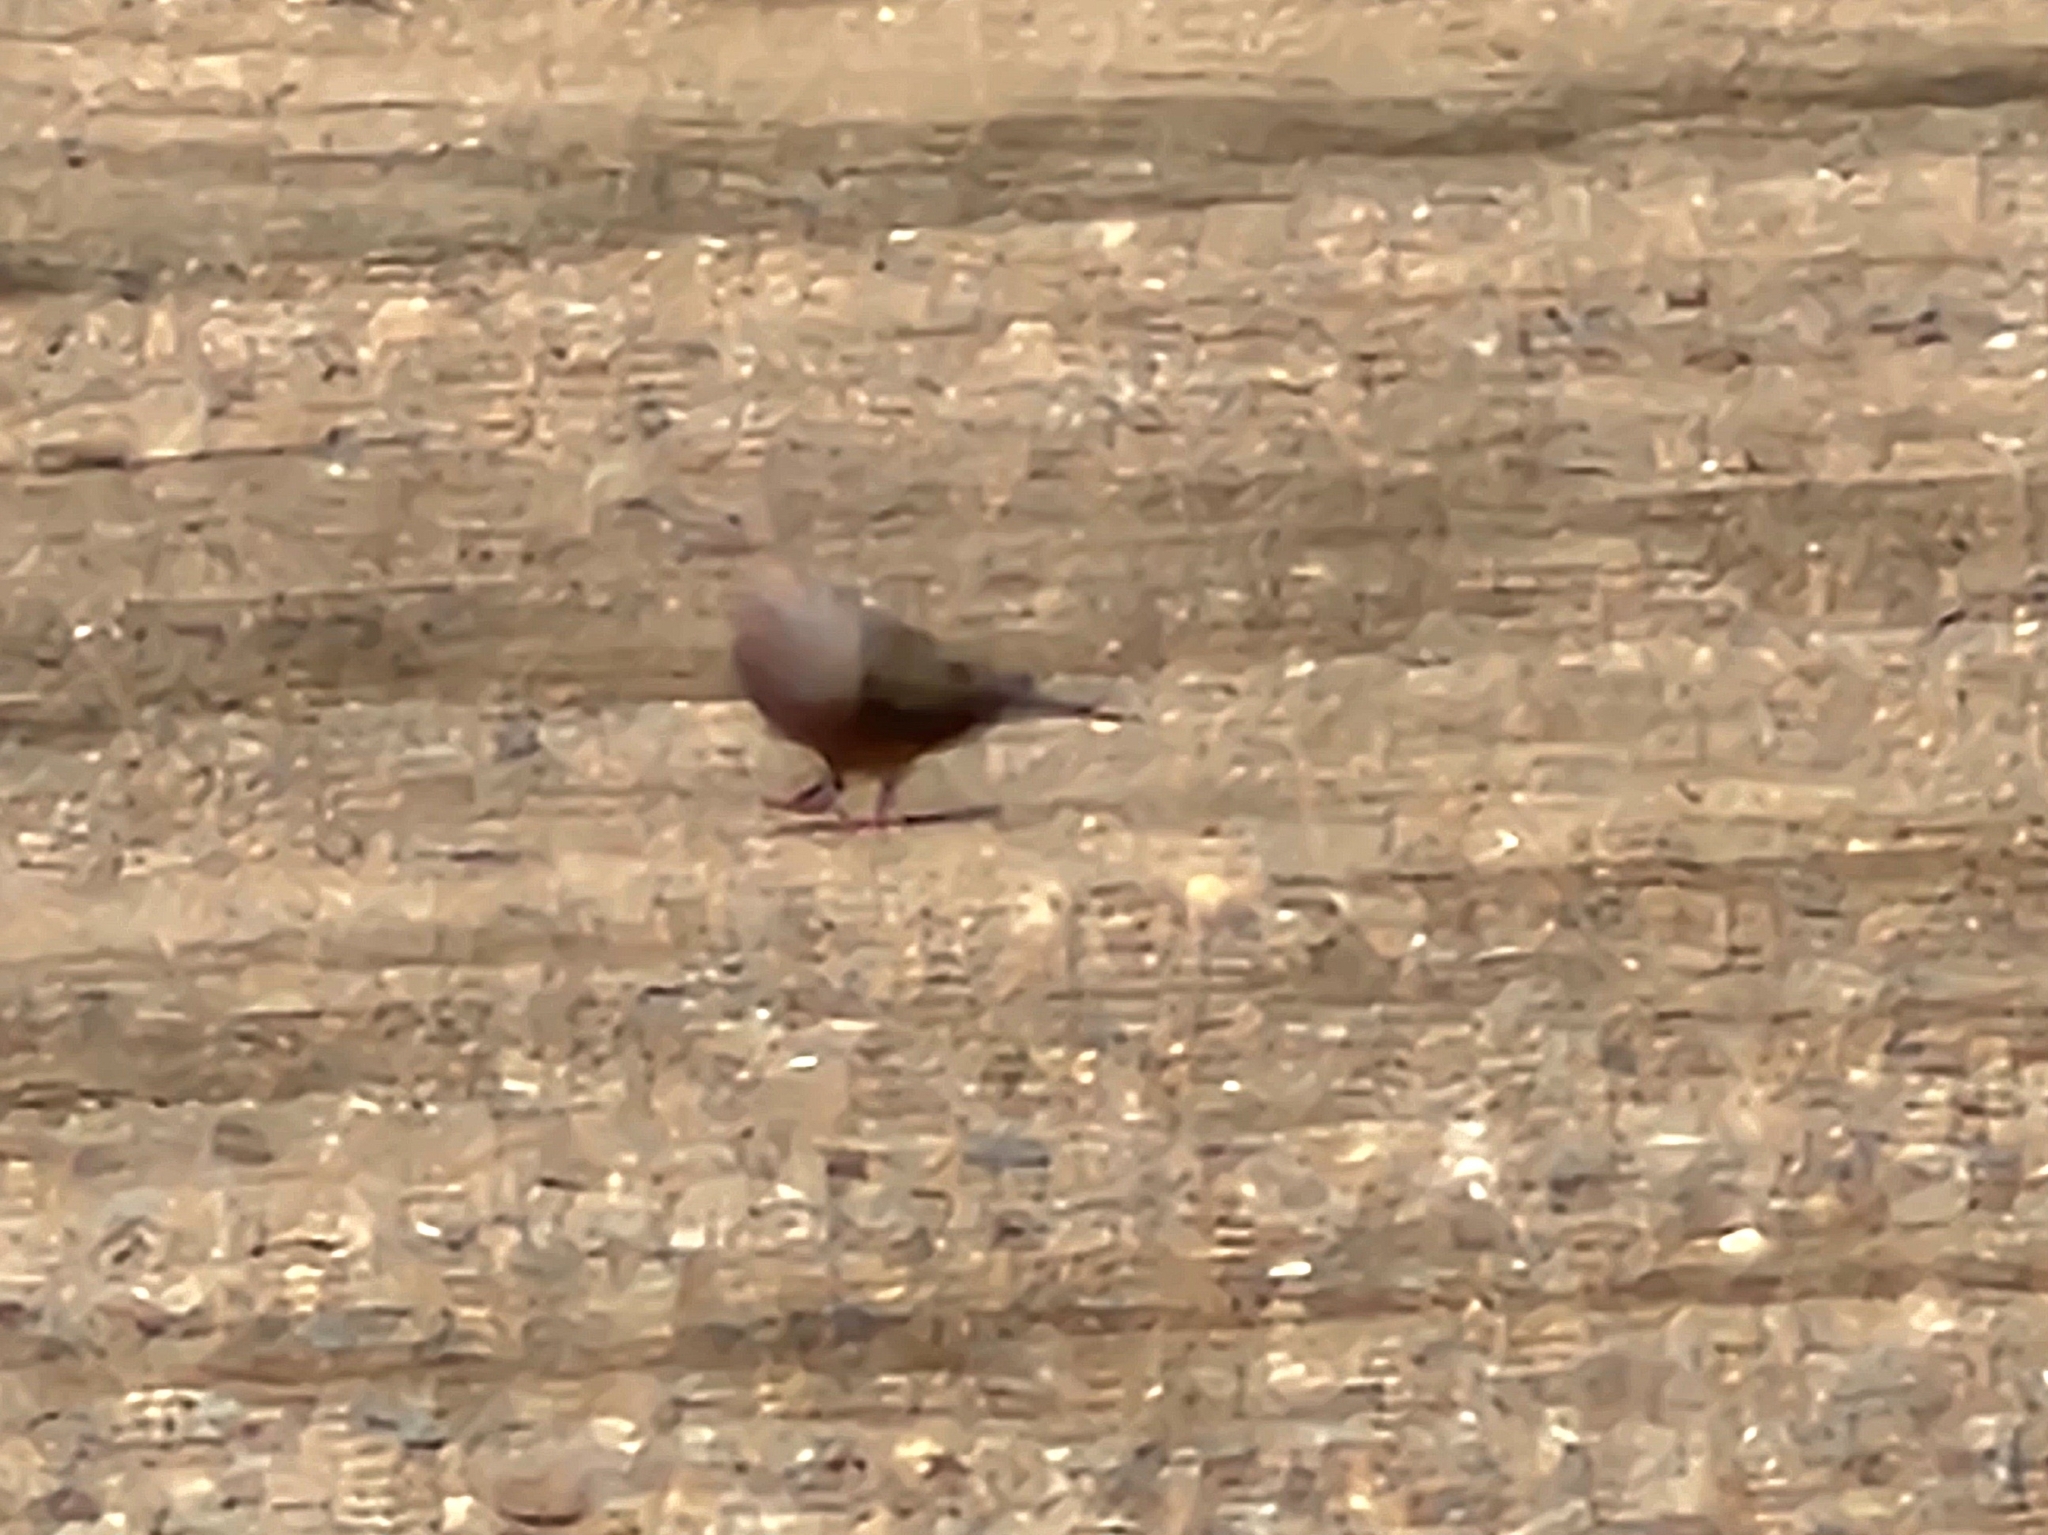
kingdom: Animalia
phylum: Chordata
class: Aves
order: Columbiformes
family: Columbidae
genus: Zenaida
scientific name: Zenaida macroura
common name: Mourning dove
